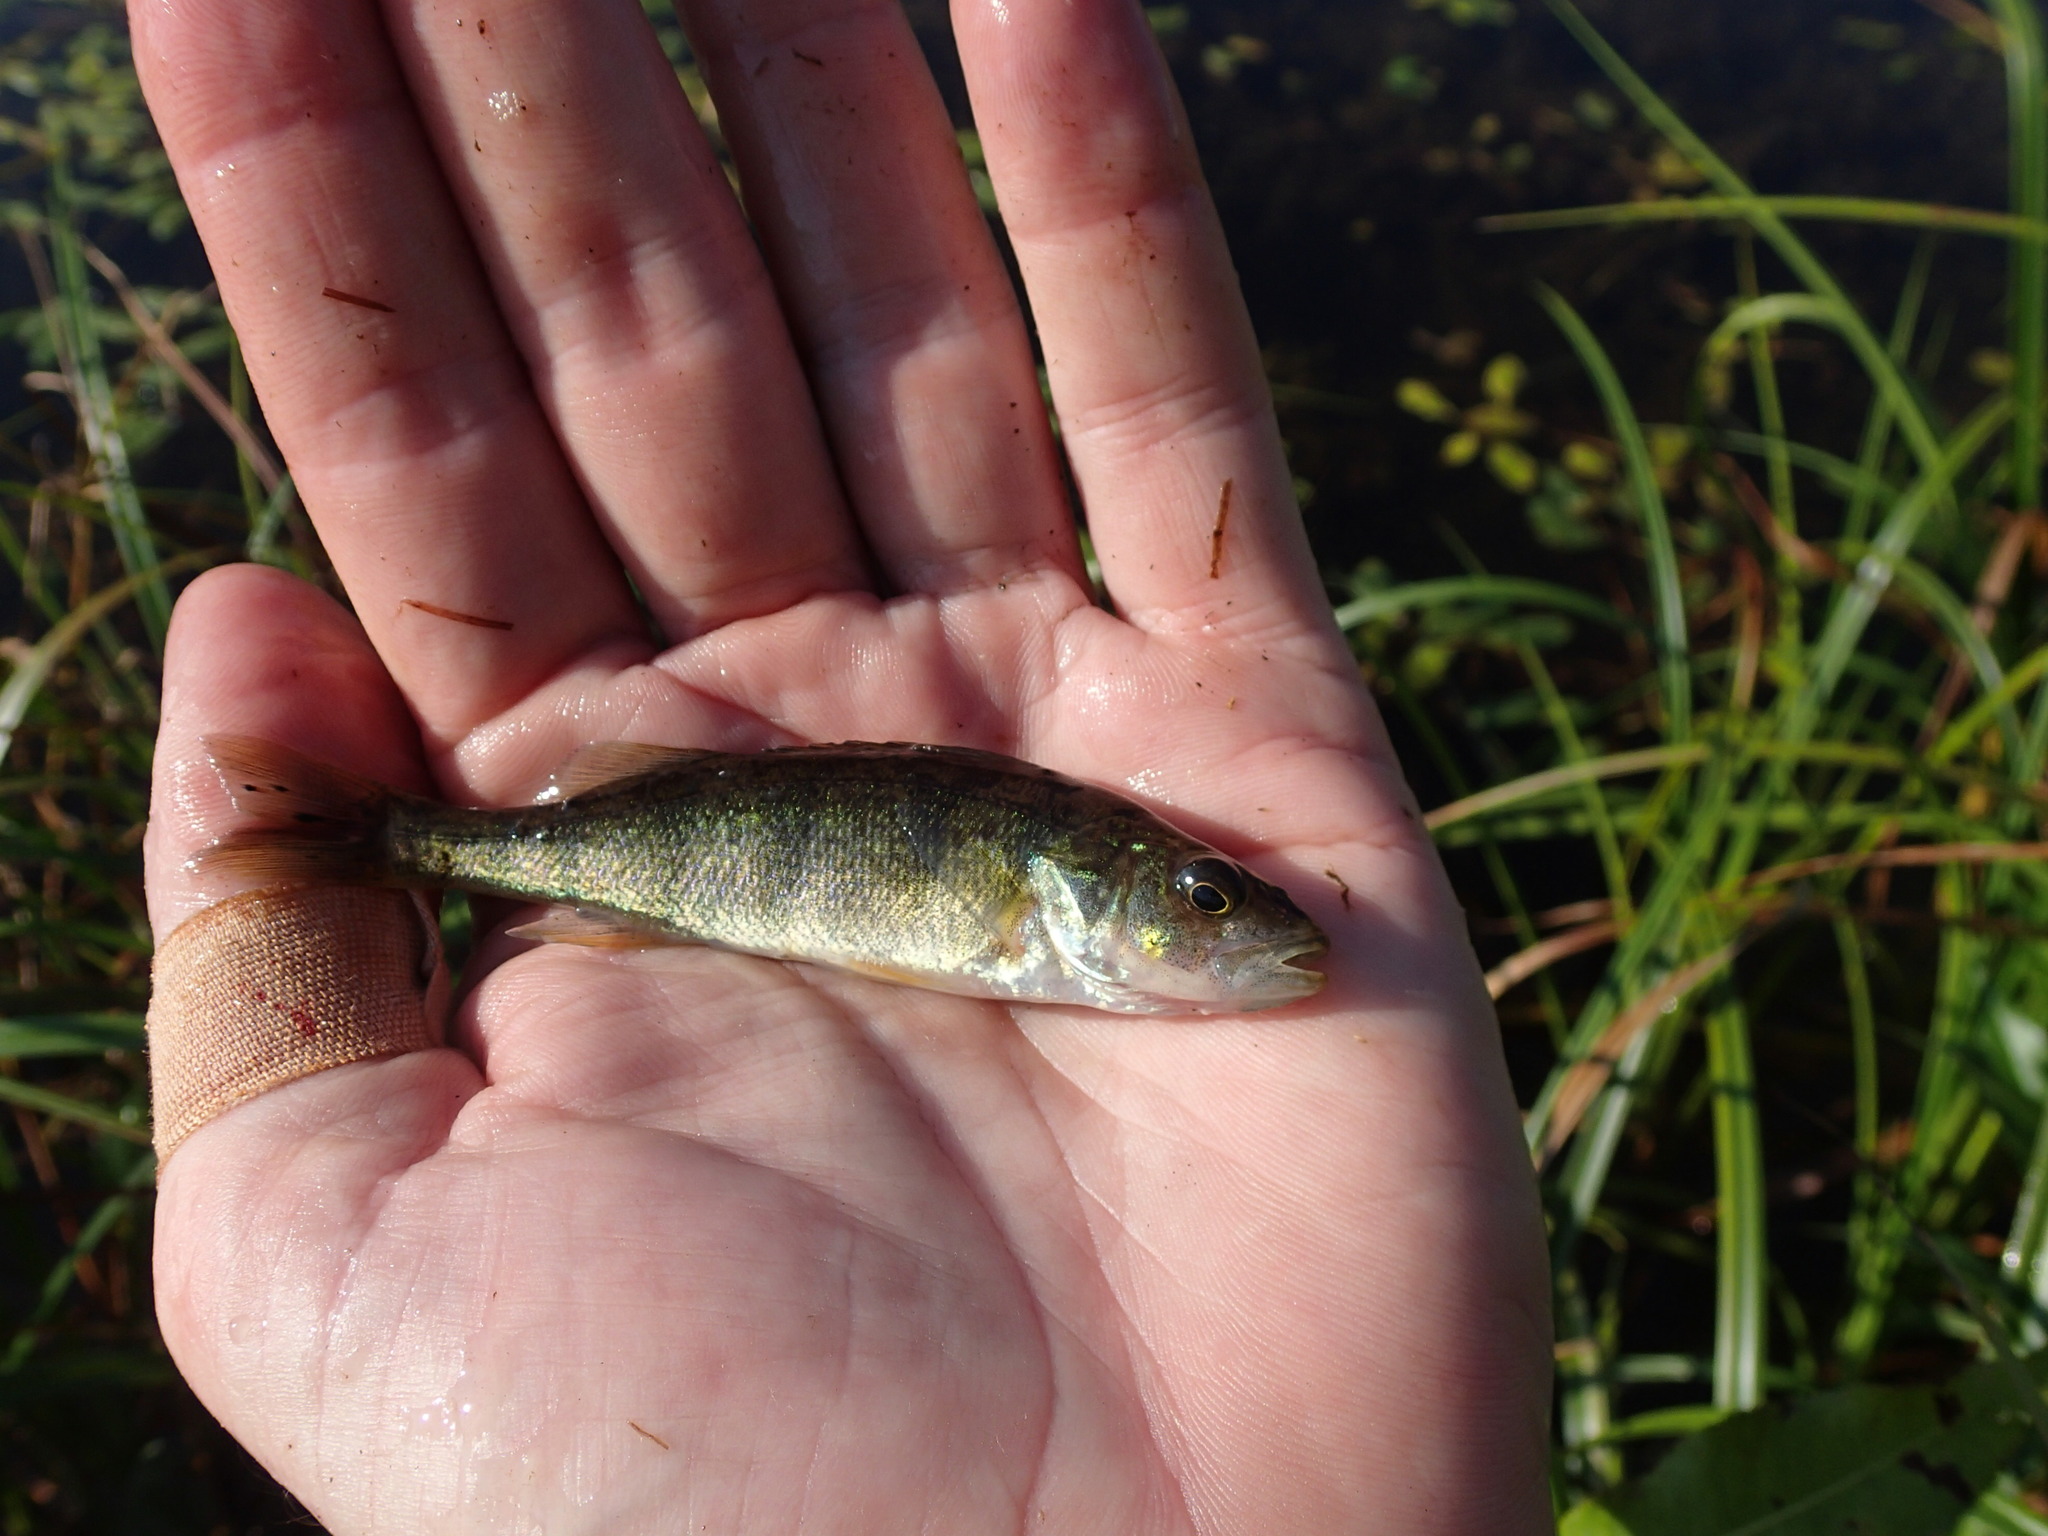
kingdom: Animalia
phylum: Chordata
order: Perciformes
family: Percidae
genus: Perca
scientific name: Perca flavescens
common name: Yellow perch
